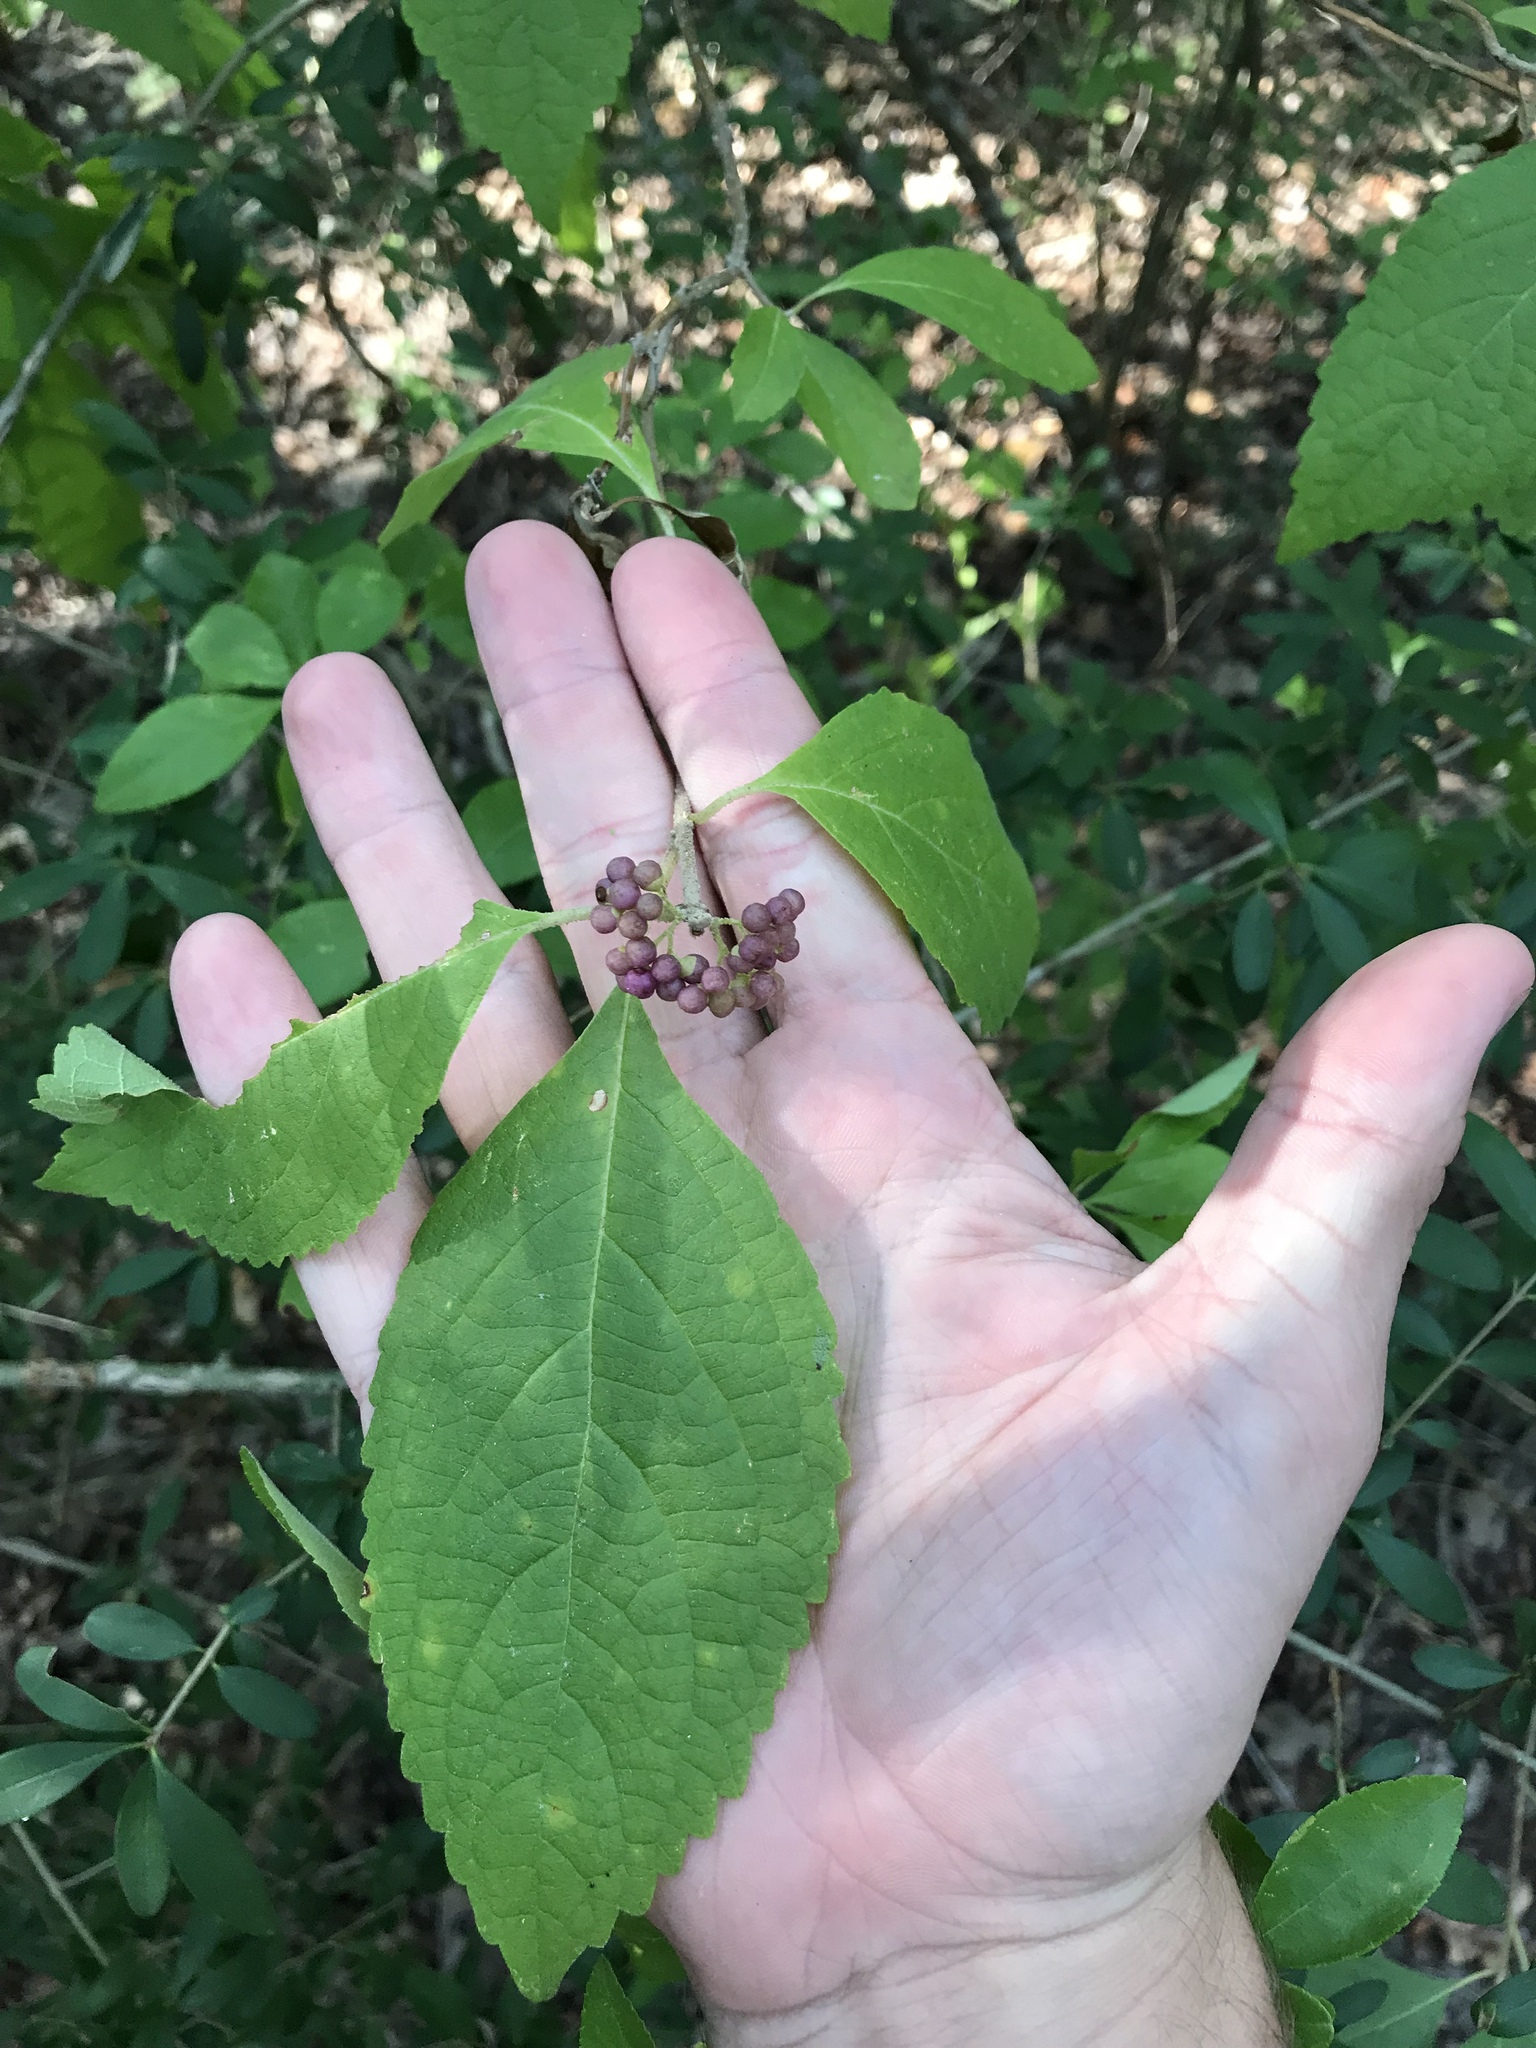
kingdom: Plantae
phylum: Tracheophyta
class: Magnoliopsida
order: Lamiales
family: Lamiaceae
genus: Callicarpa
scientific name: Callicarpa americana
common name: American beautyberry
